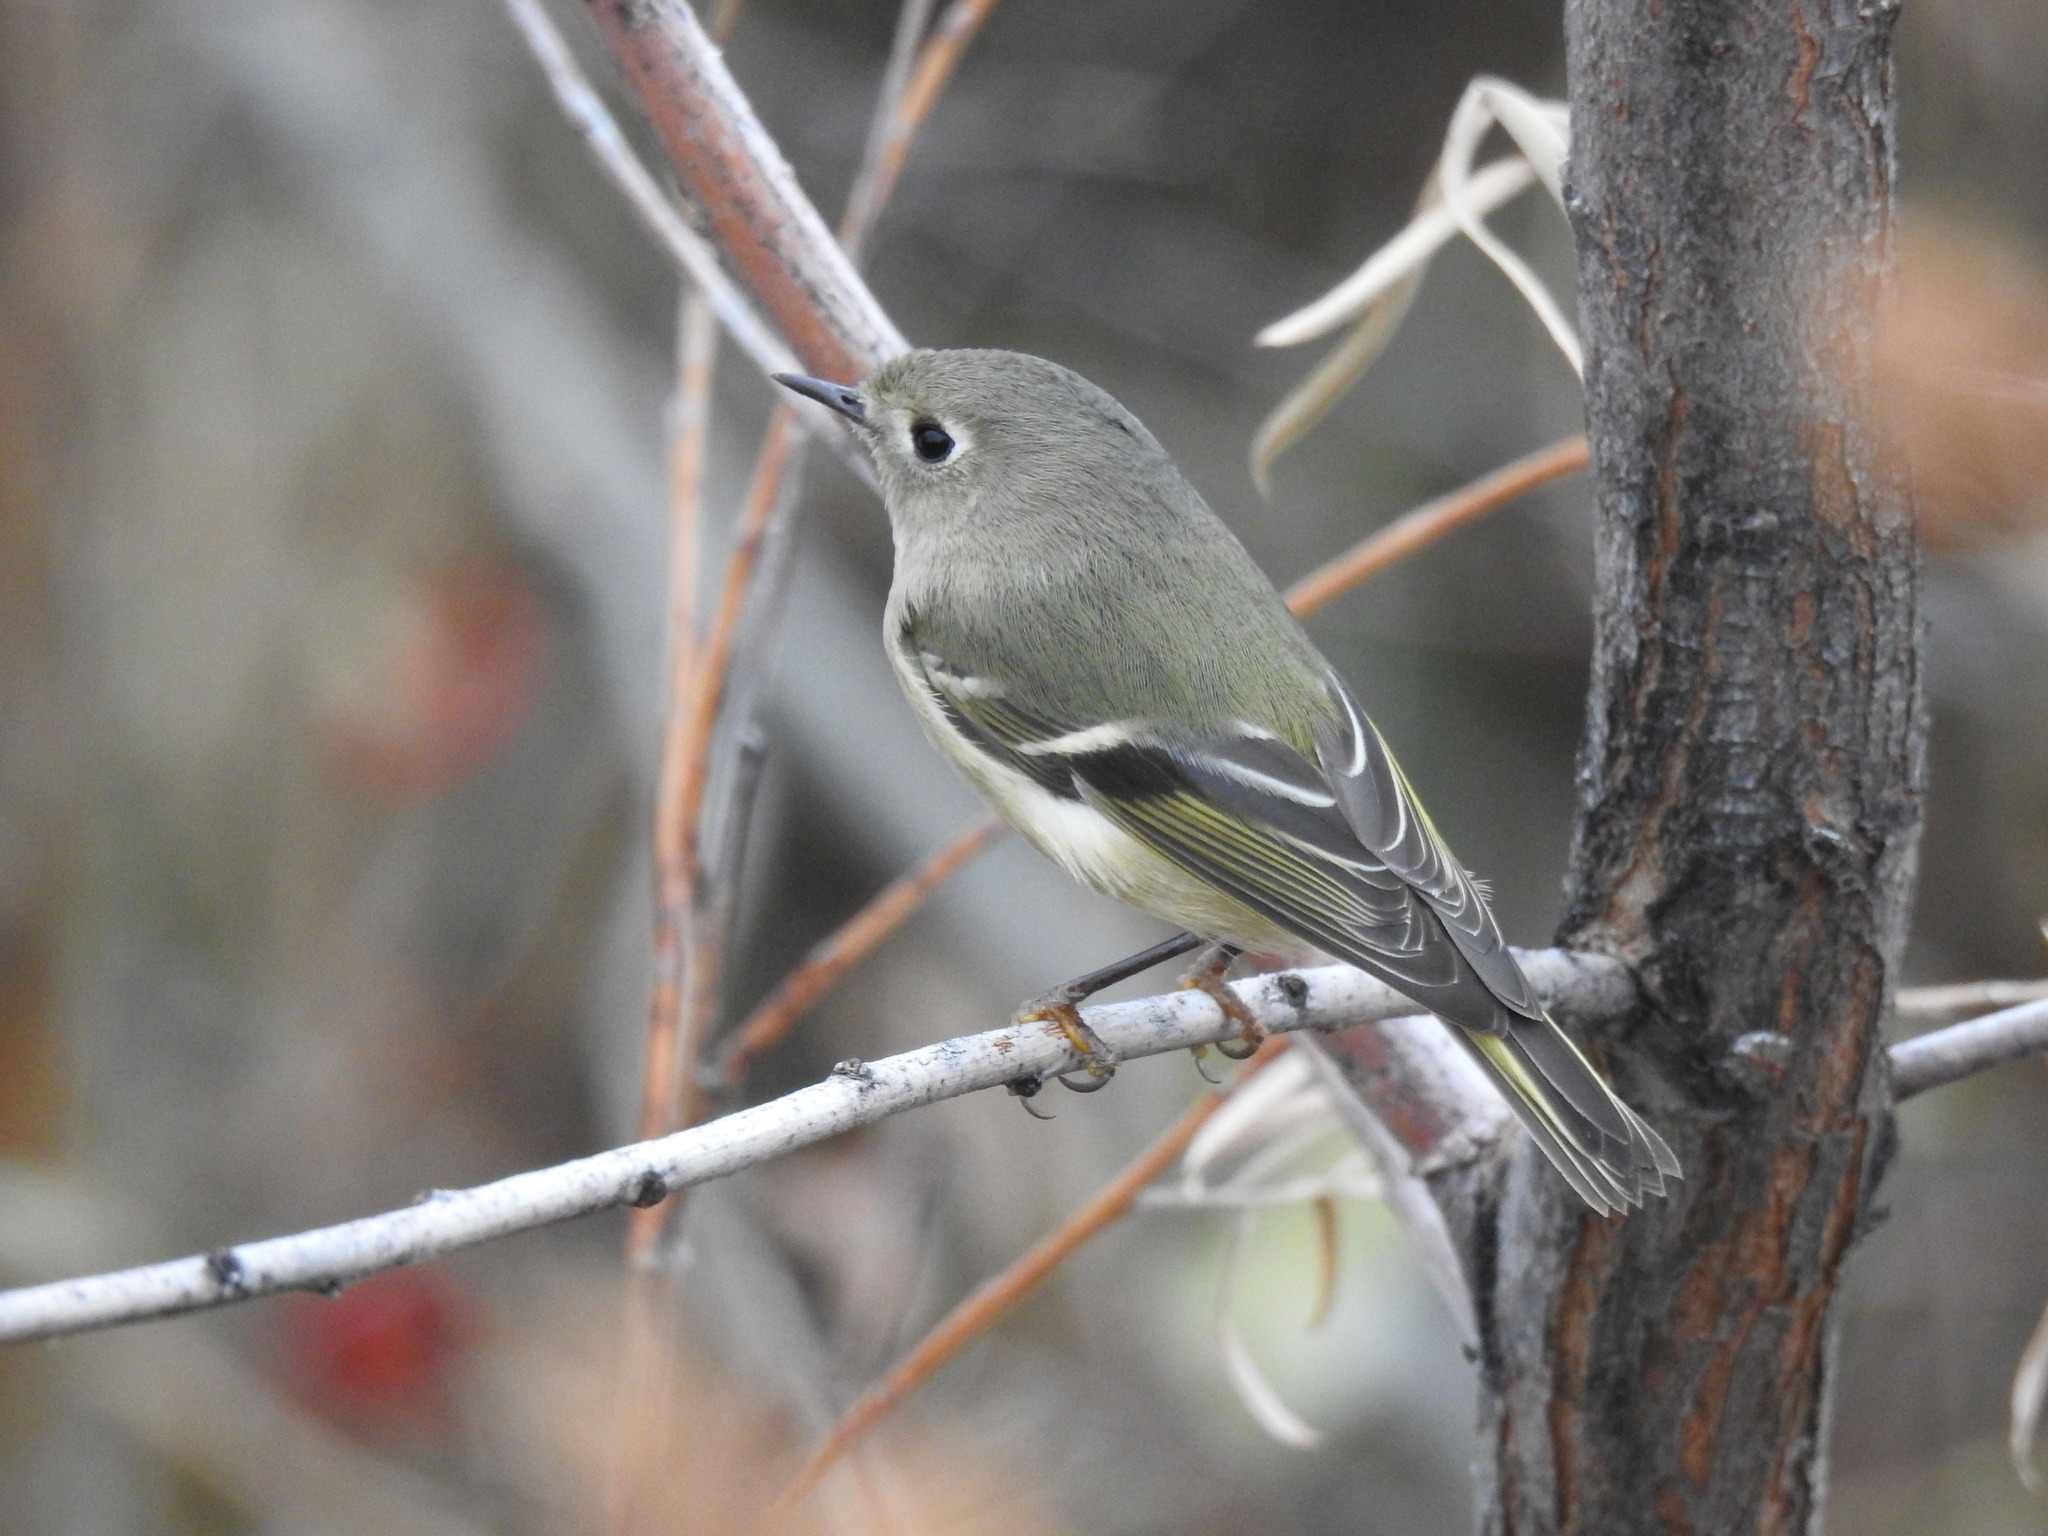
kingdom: Animalia
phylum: Chordata
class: Aves
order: Passeriformes
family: Regulidae
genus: Regulus
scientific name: Regulus calendula
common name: Ruby-crowned kinglet
